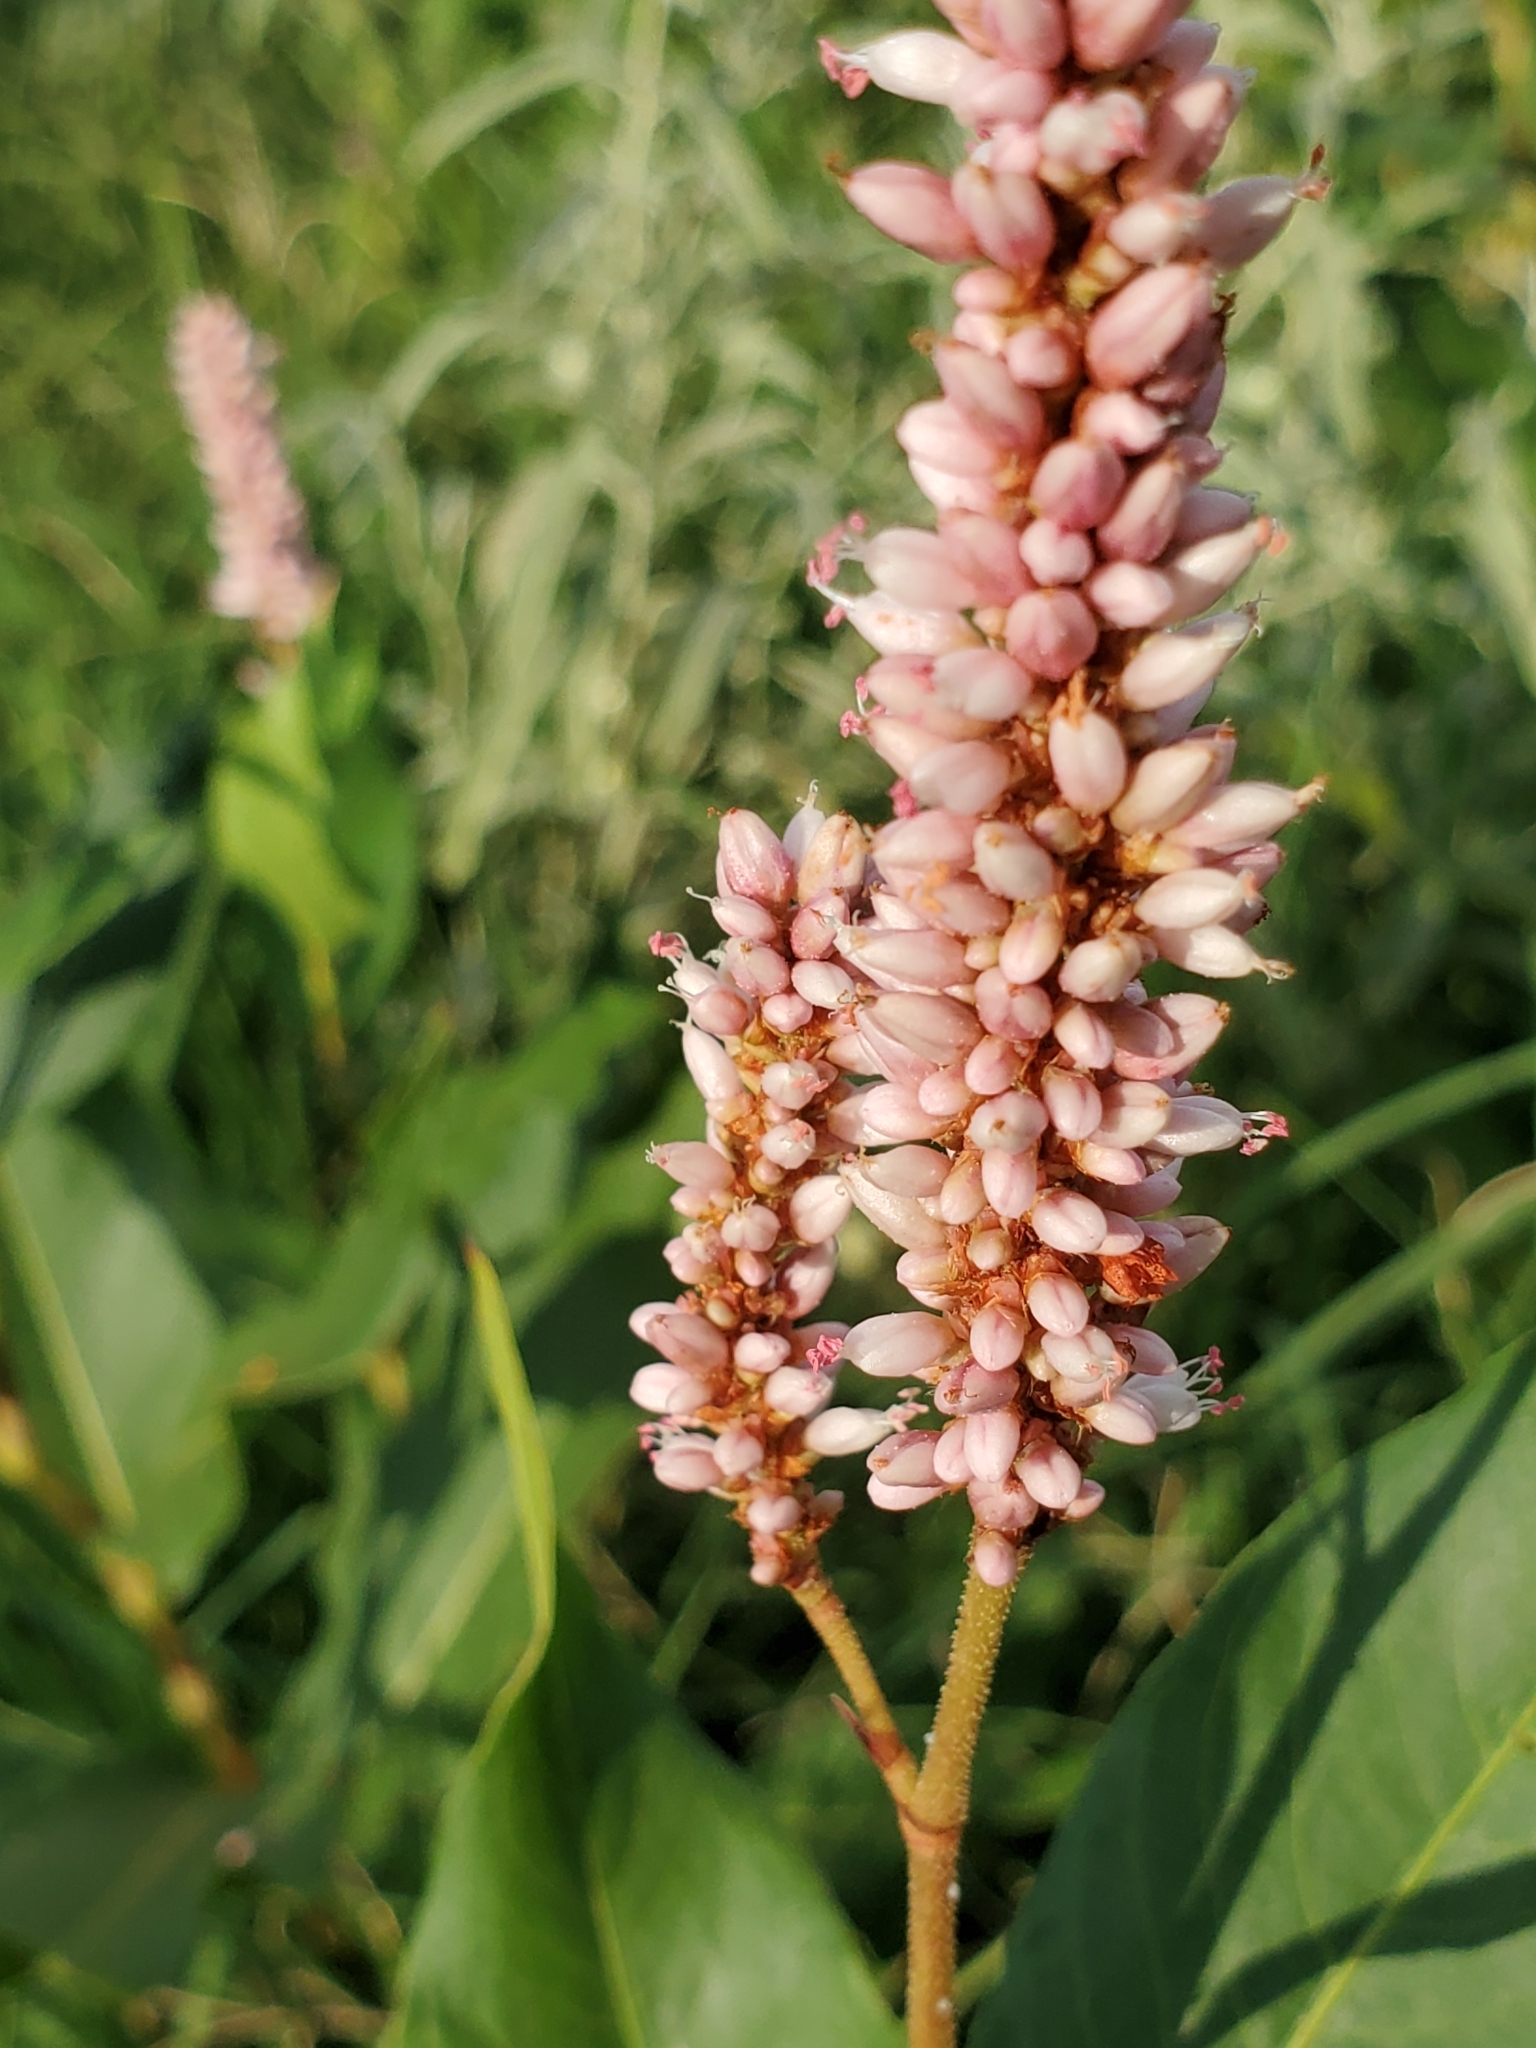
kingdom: Plantae
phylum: Tracheophyta
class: Magnoliopsida
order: Caryophyllales
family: Polygonaceae
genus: Persicaria
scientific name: Persicaria amphibia
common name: Amphibious bistort
